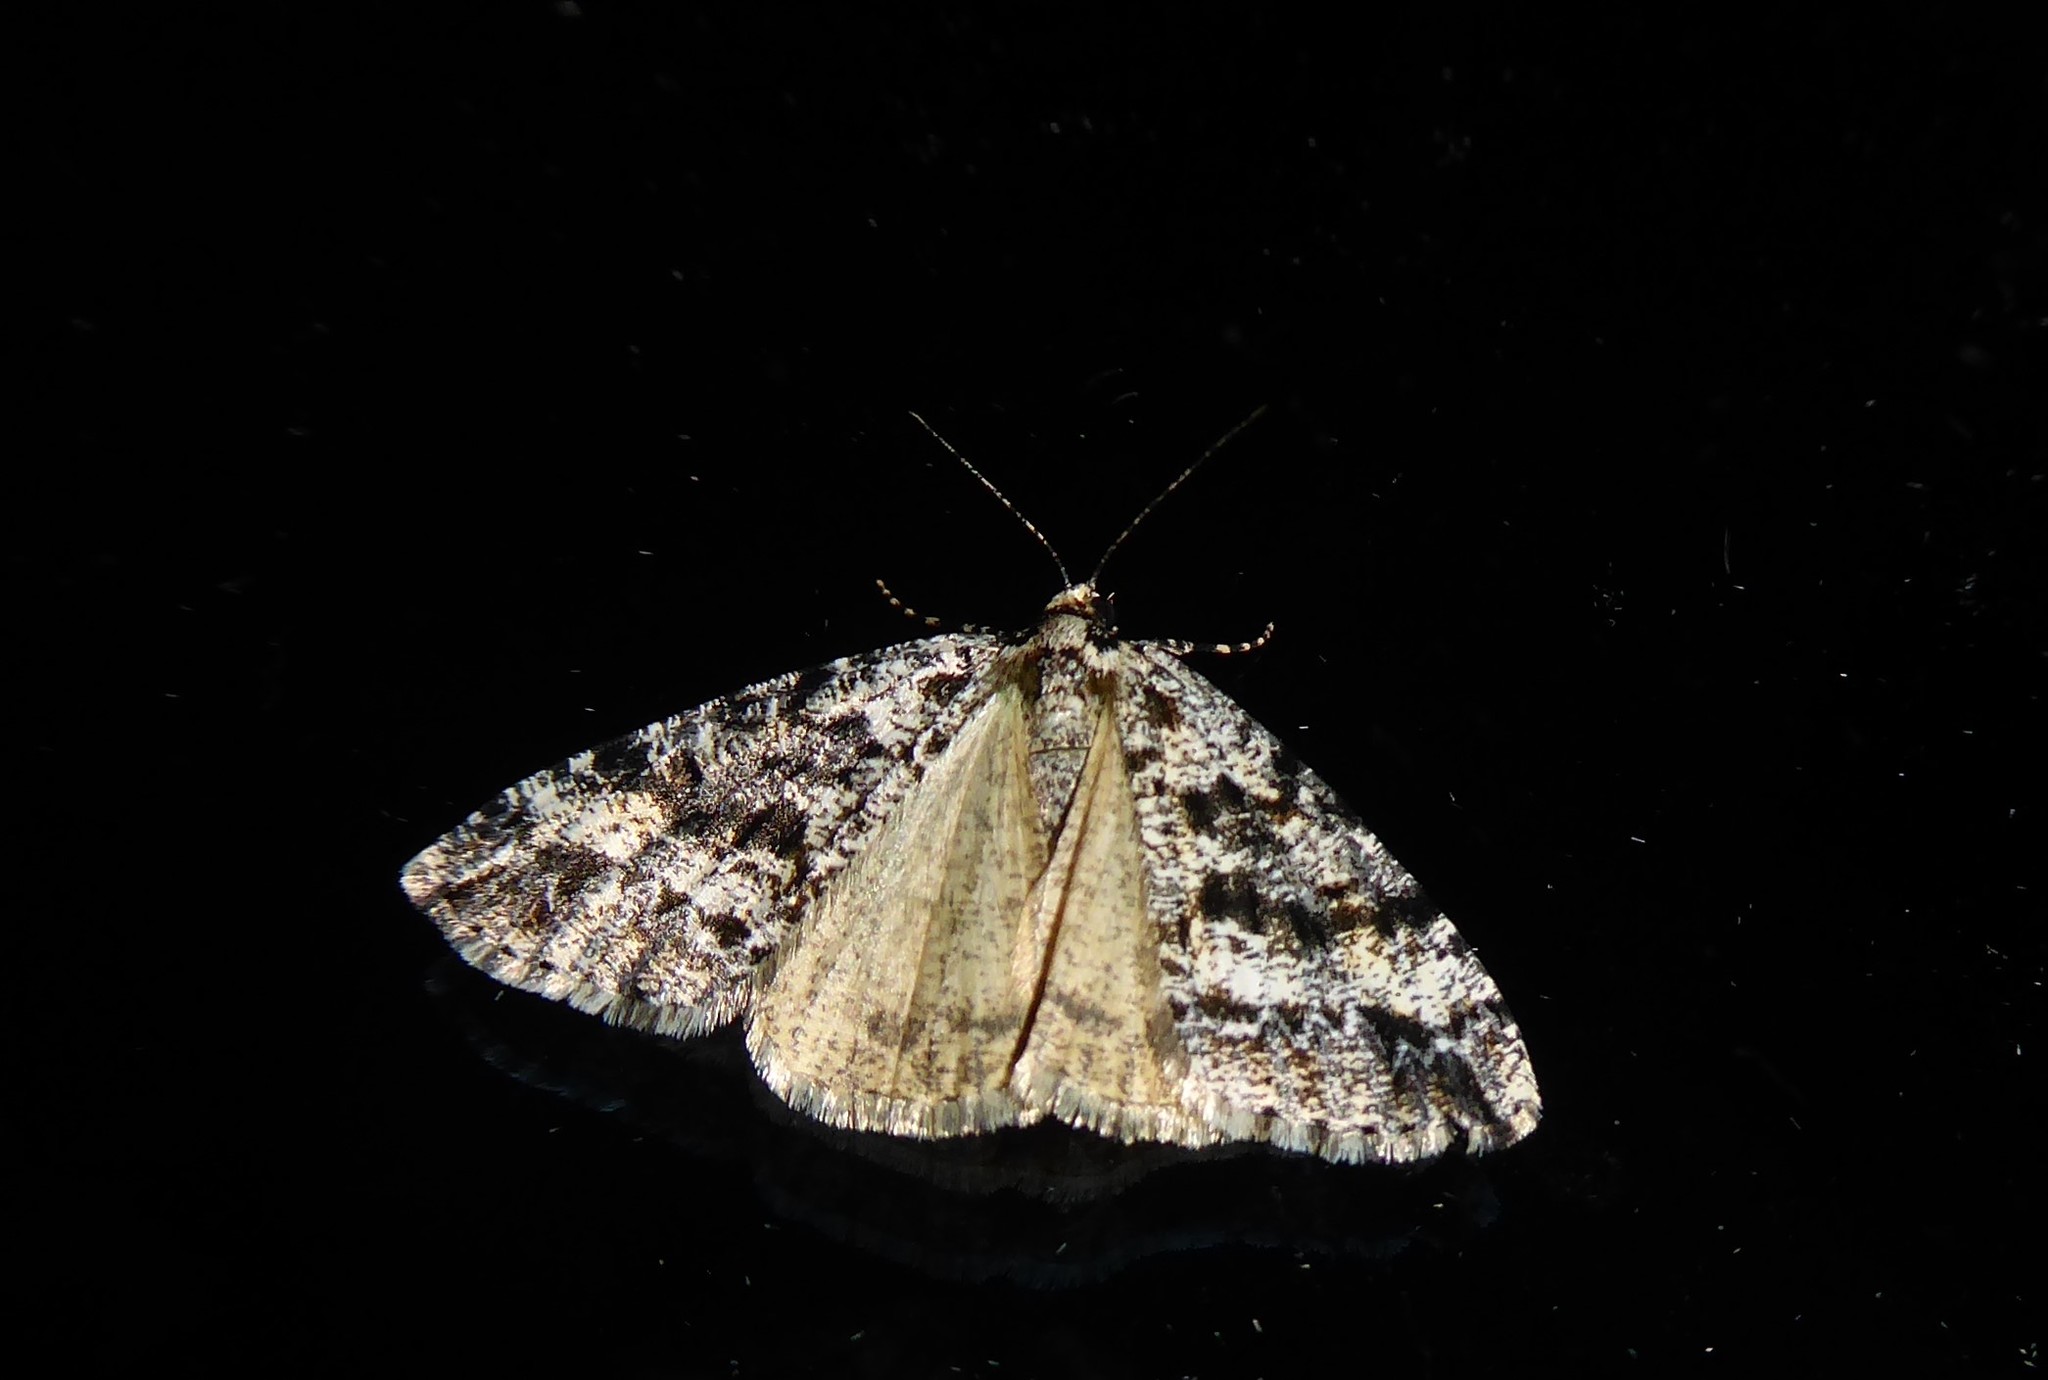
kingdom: Animalia
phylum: Arthropoda
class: Insecta
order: Lepidoptera
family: Geometridae
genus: Pseudocoremia
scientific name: Pseudocoremia leucelaea
